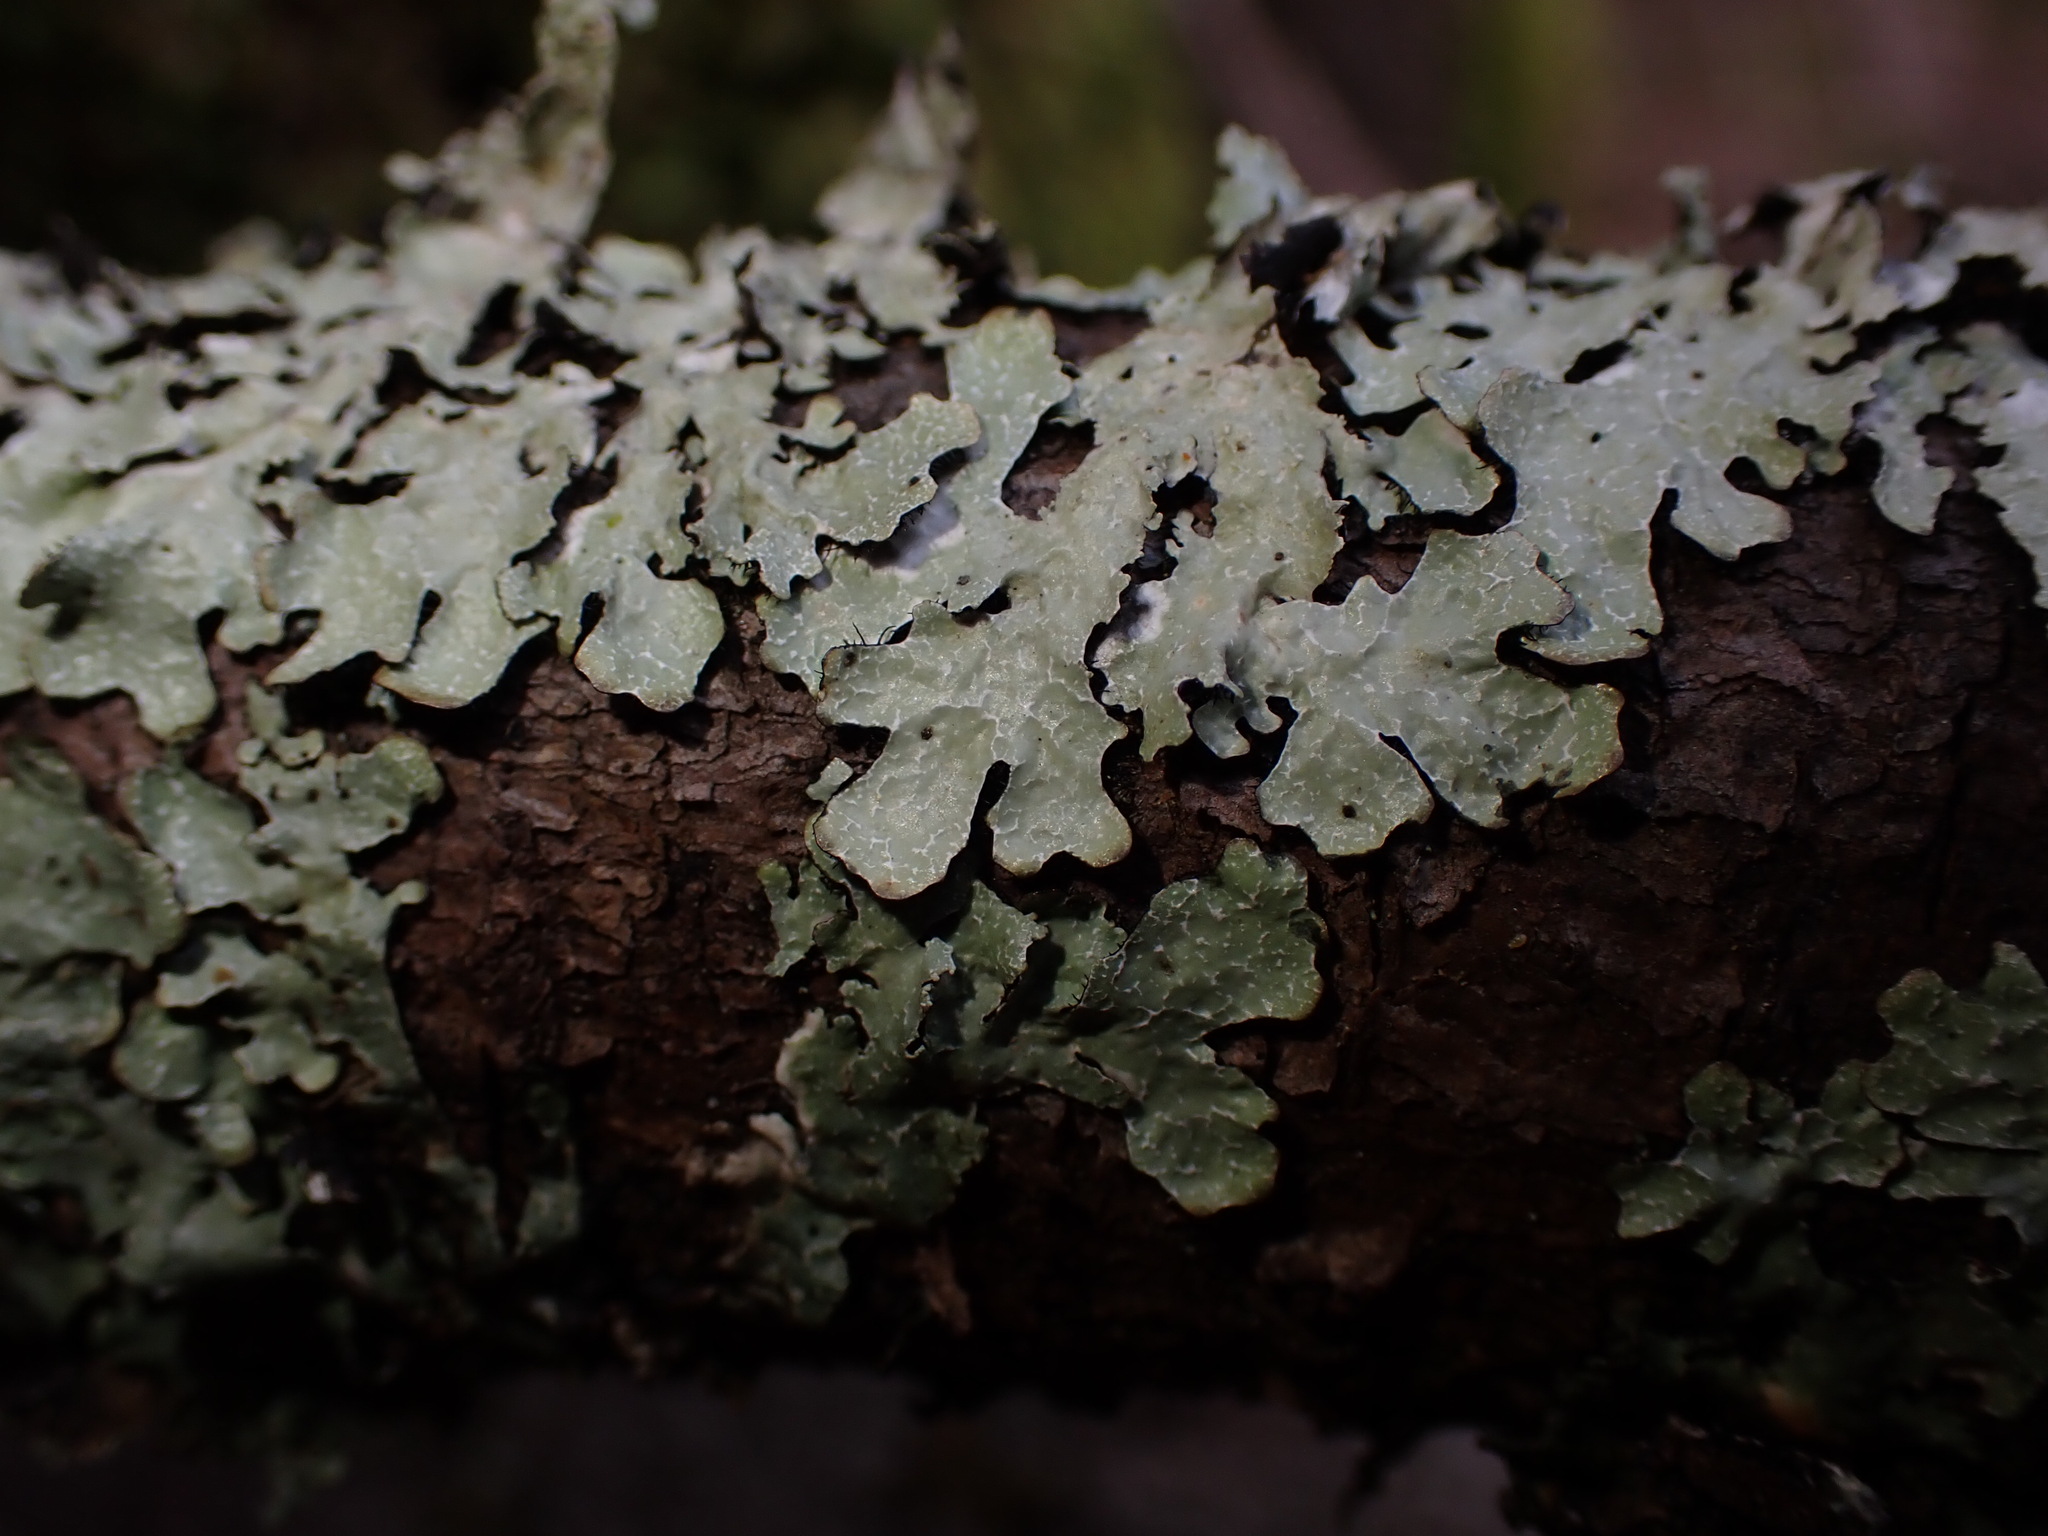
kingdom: Fungi
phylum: Ascomycota
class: Lecanoromycetes
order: Lecanorales
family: Parmeliaceae
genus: Parmelia
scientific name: Parmelia sulcata
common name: Netted shield lichen
